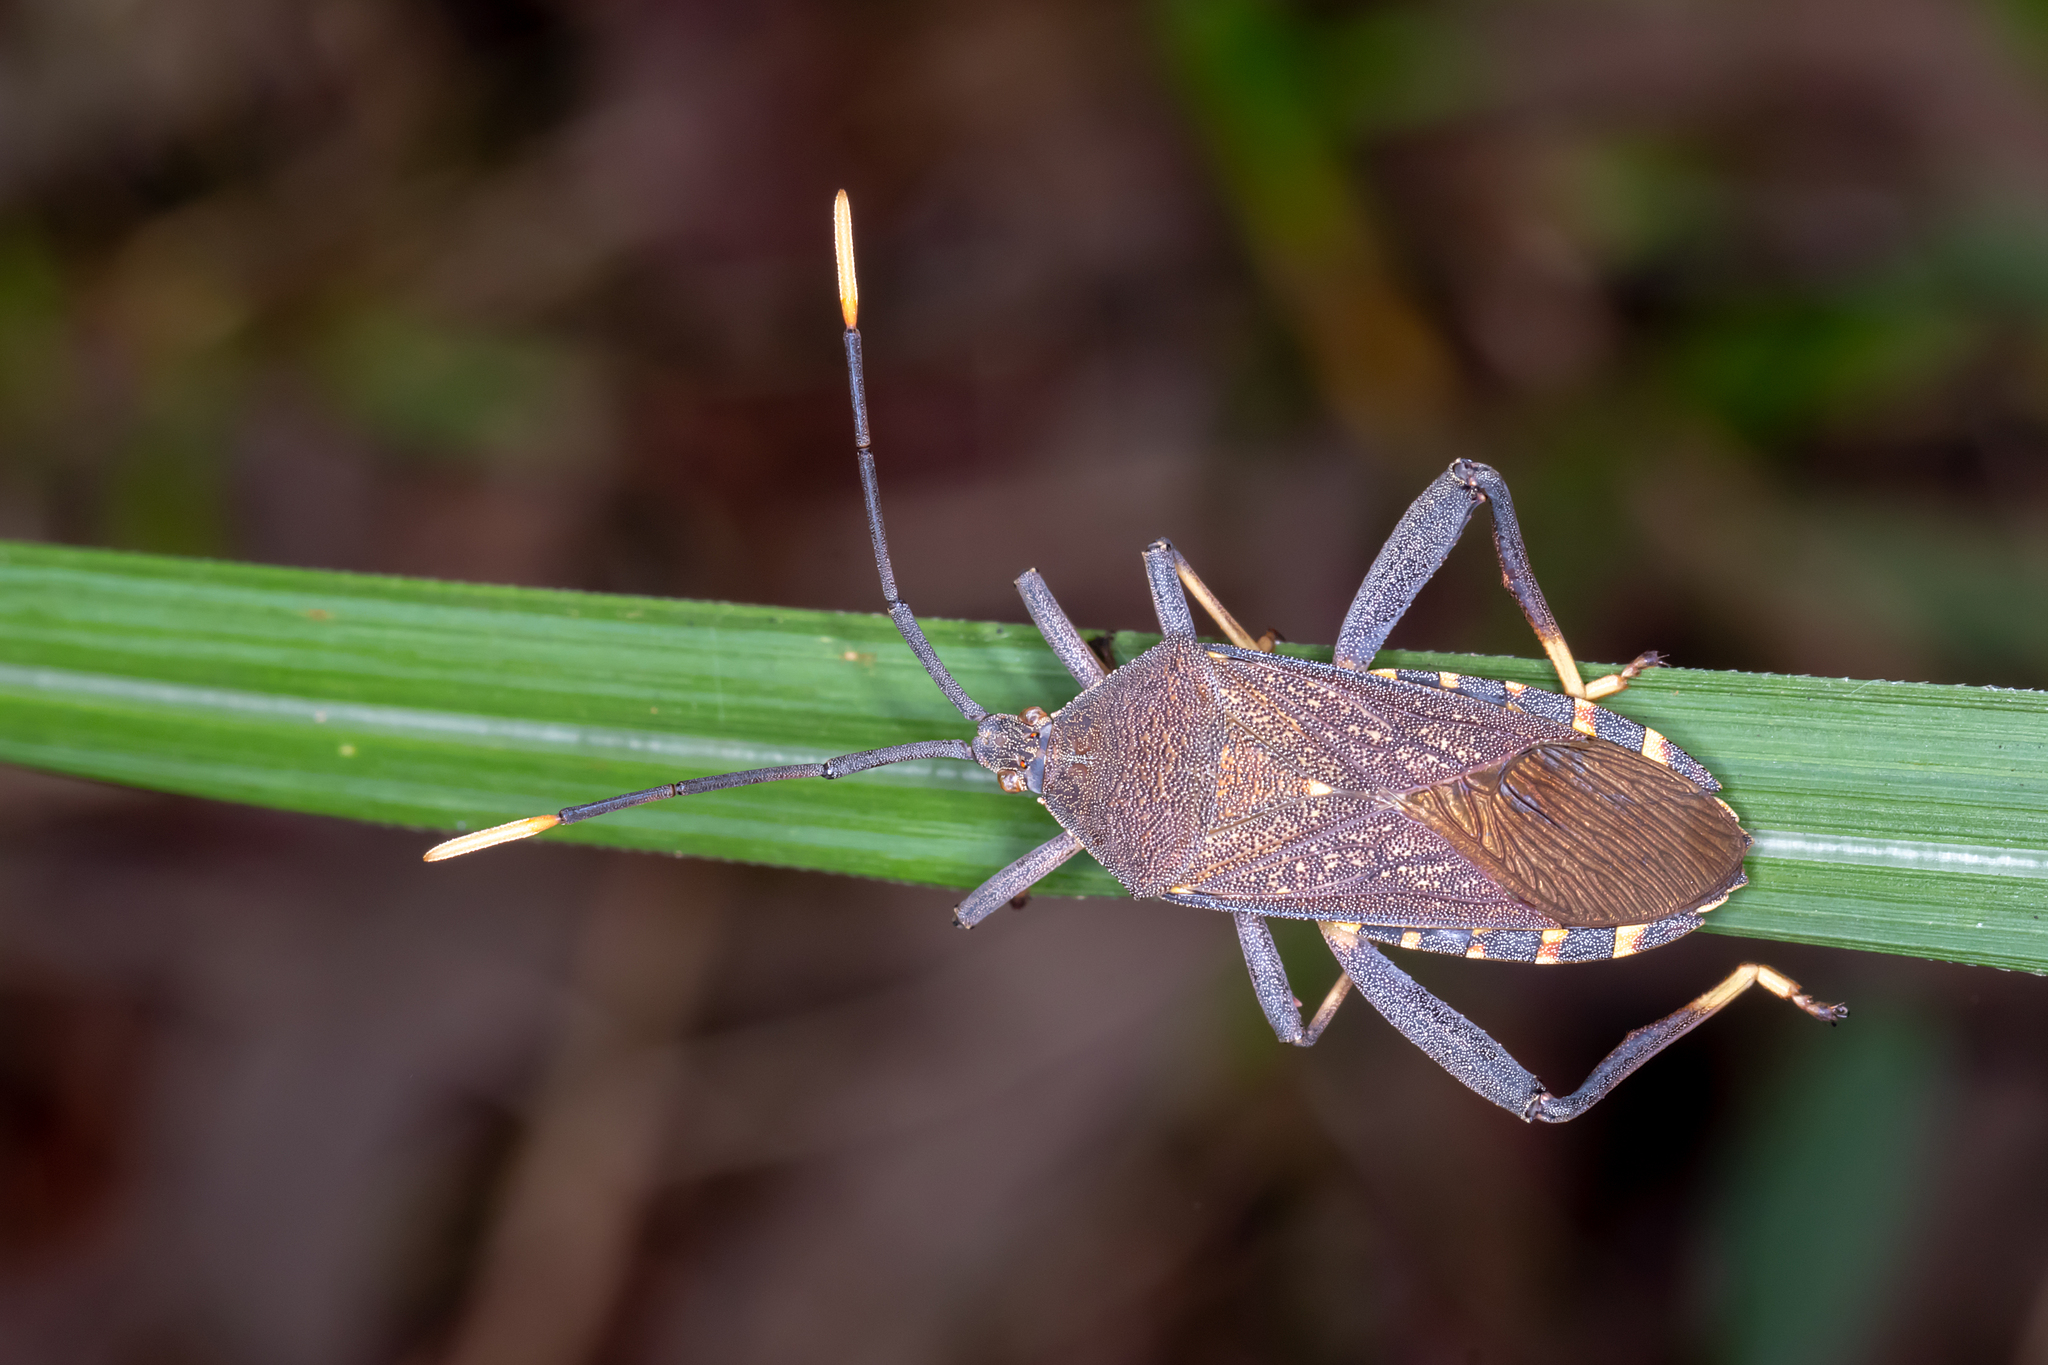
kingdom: Animalia
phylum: Arthropoda
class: Insecta
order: Hemiptera
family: Coreidae
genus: Amorbus
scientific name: Amorbus atomarius
